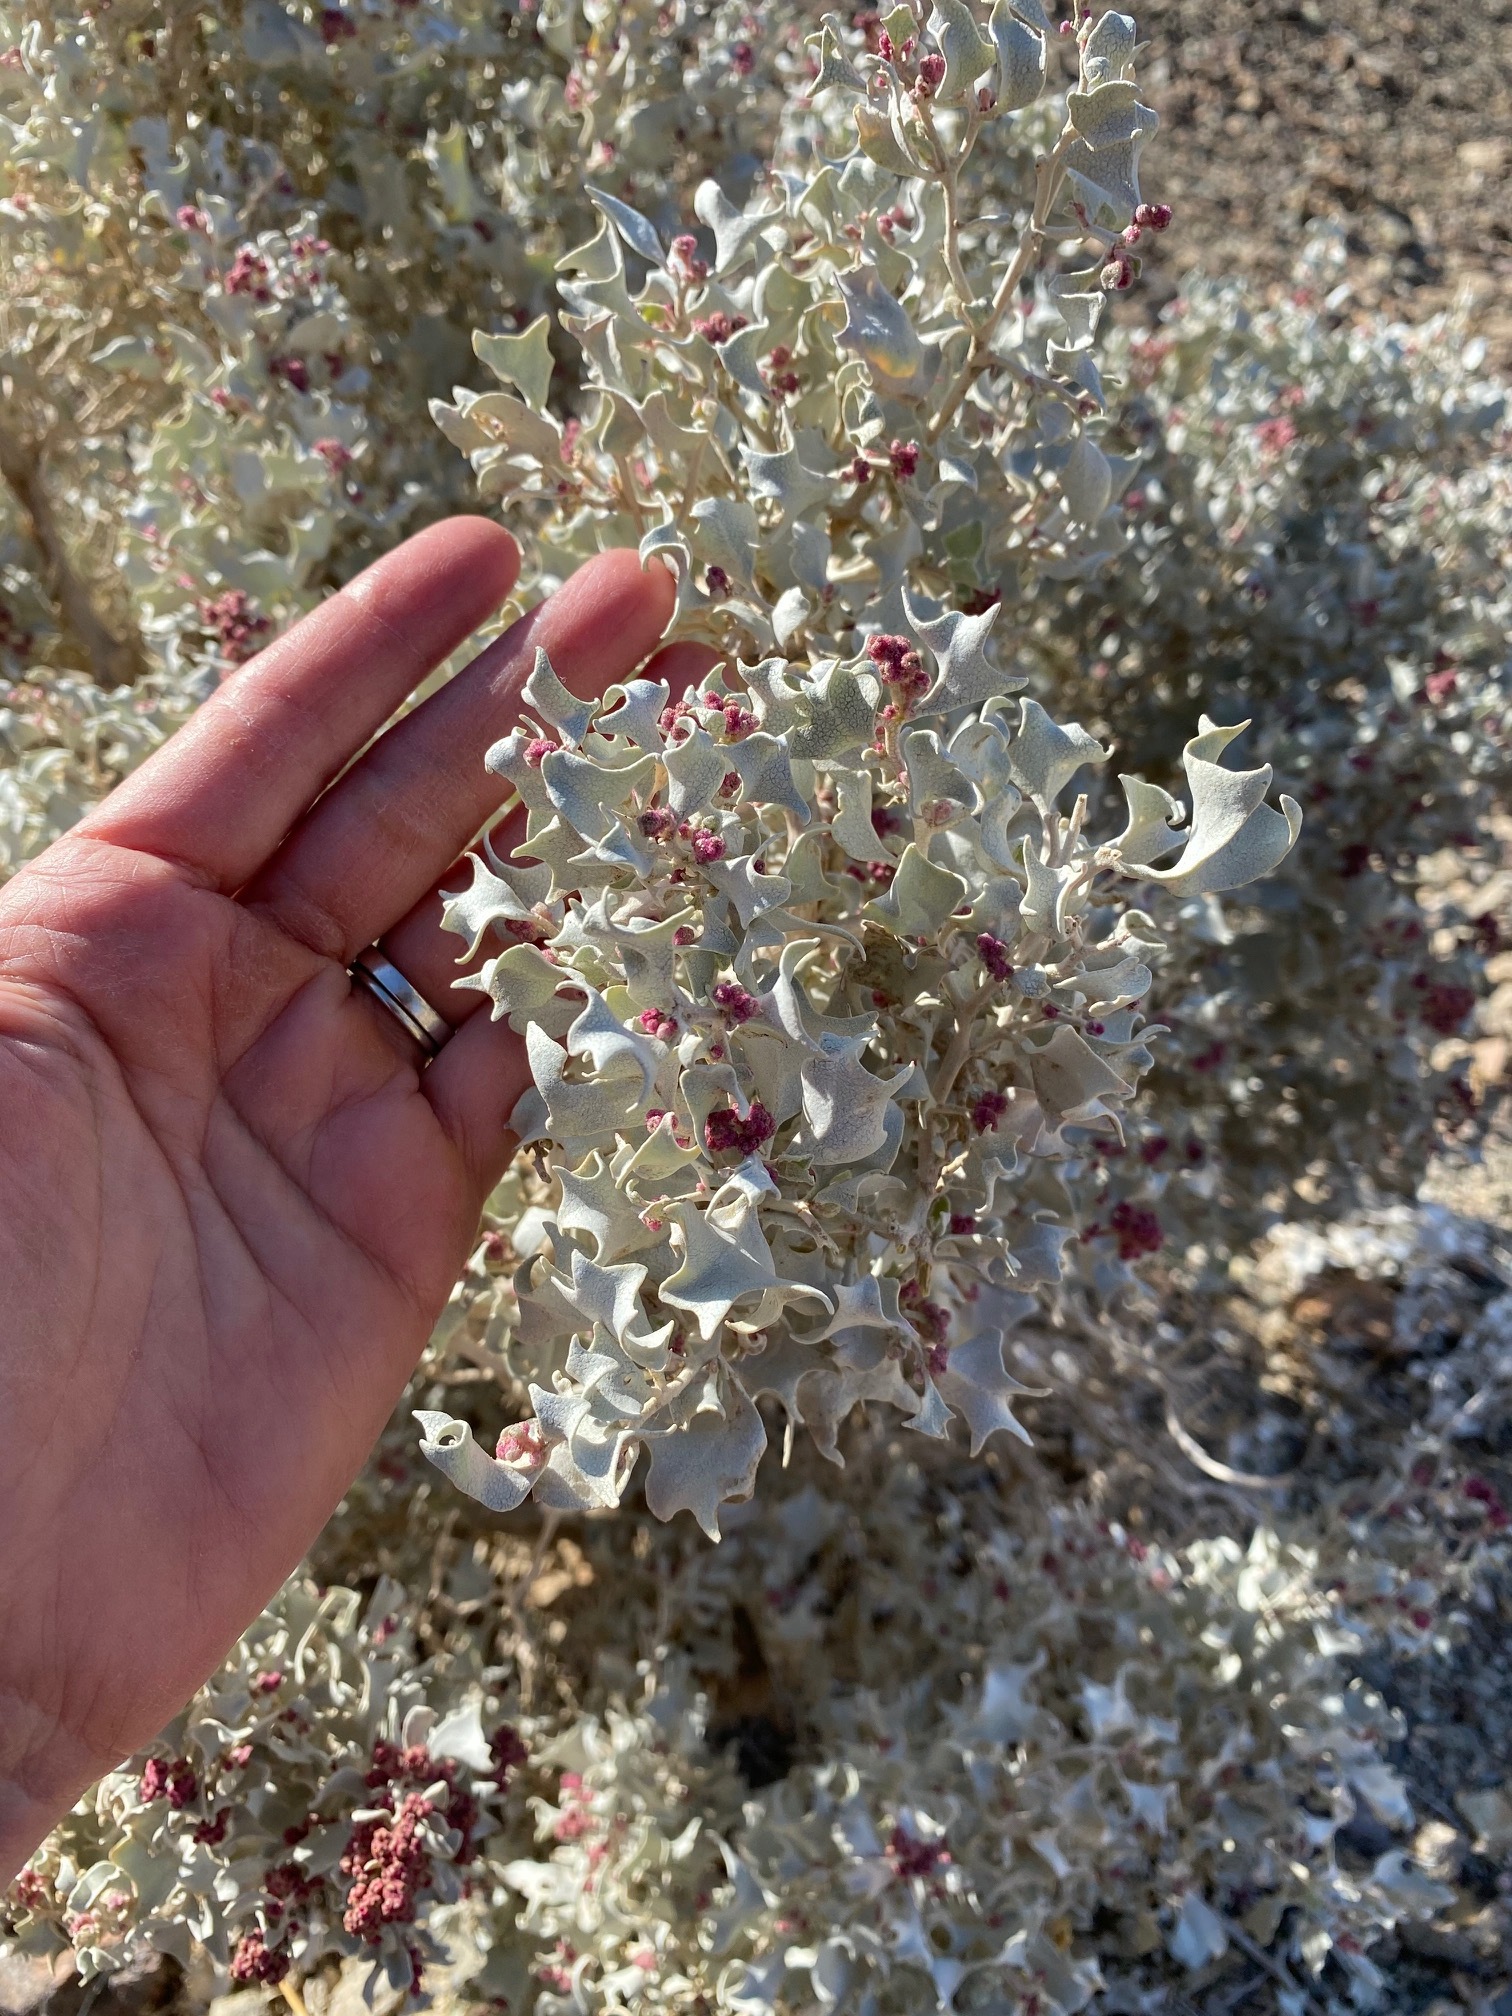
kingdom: Plantae
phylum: Tracheophyta
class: Magnoliopsida
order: Caryophyllales
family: Amaranthaceae
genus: Atriplex
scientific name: Atriplex hymenelytra
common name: Desert-holly
